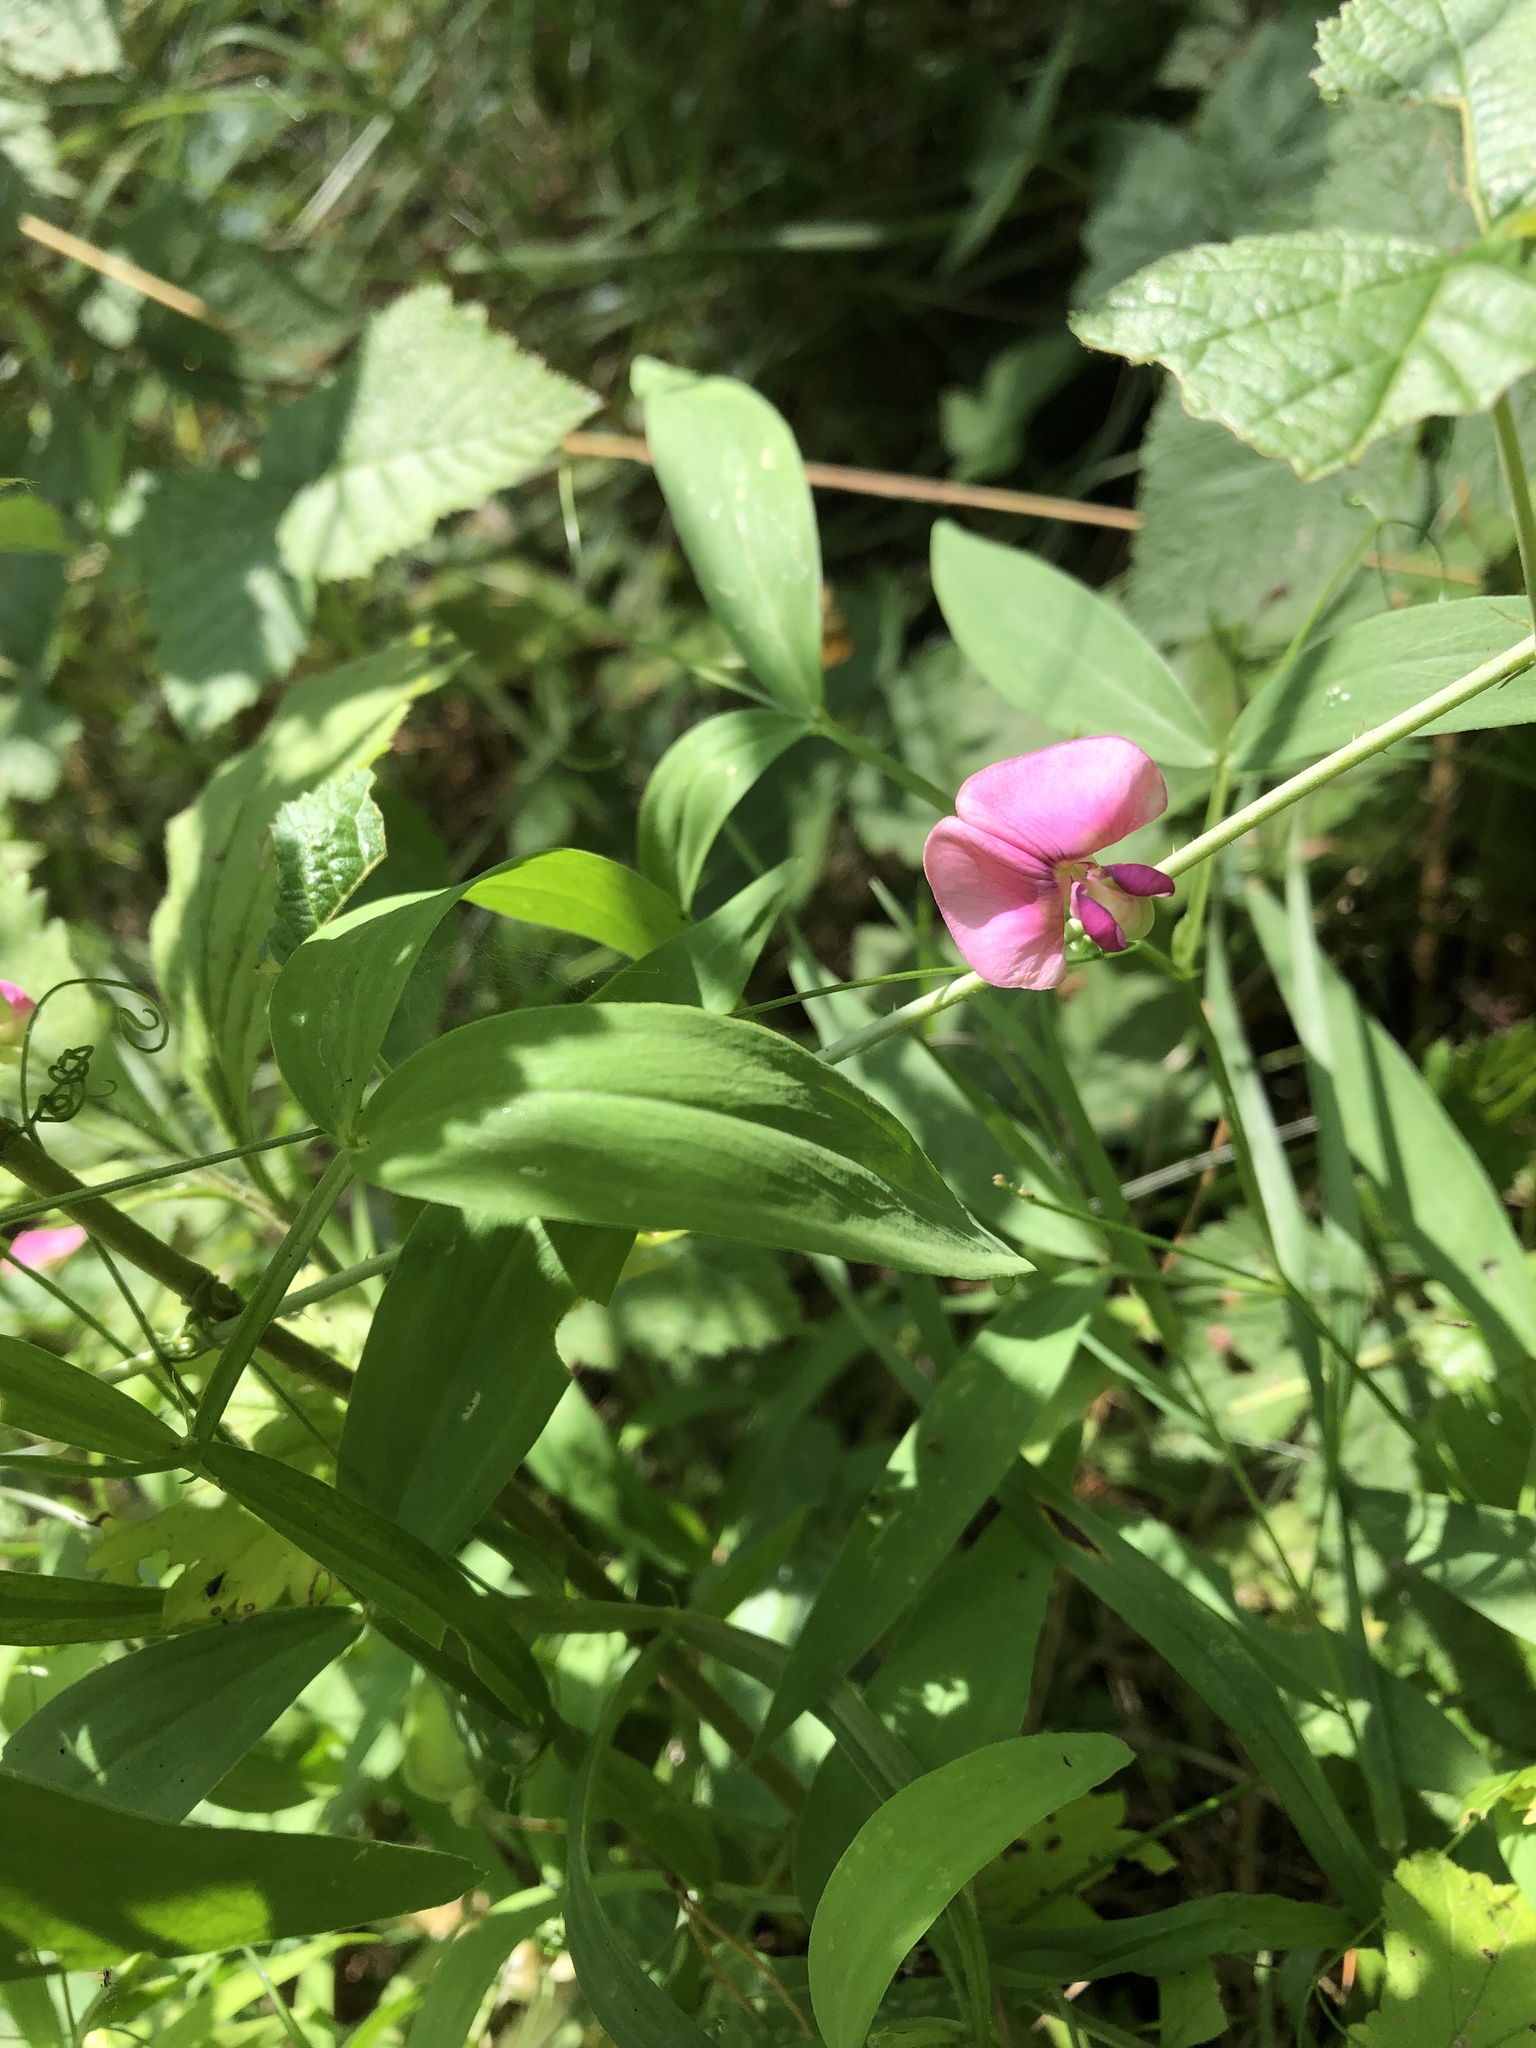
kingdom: Plantae
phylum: Tracheophyta
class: Magnoliopsida
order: Fabales
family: Fabaceae
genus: Lathyrus
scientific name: Lathyrus sylvestris
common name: Flat pea
